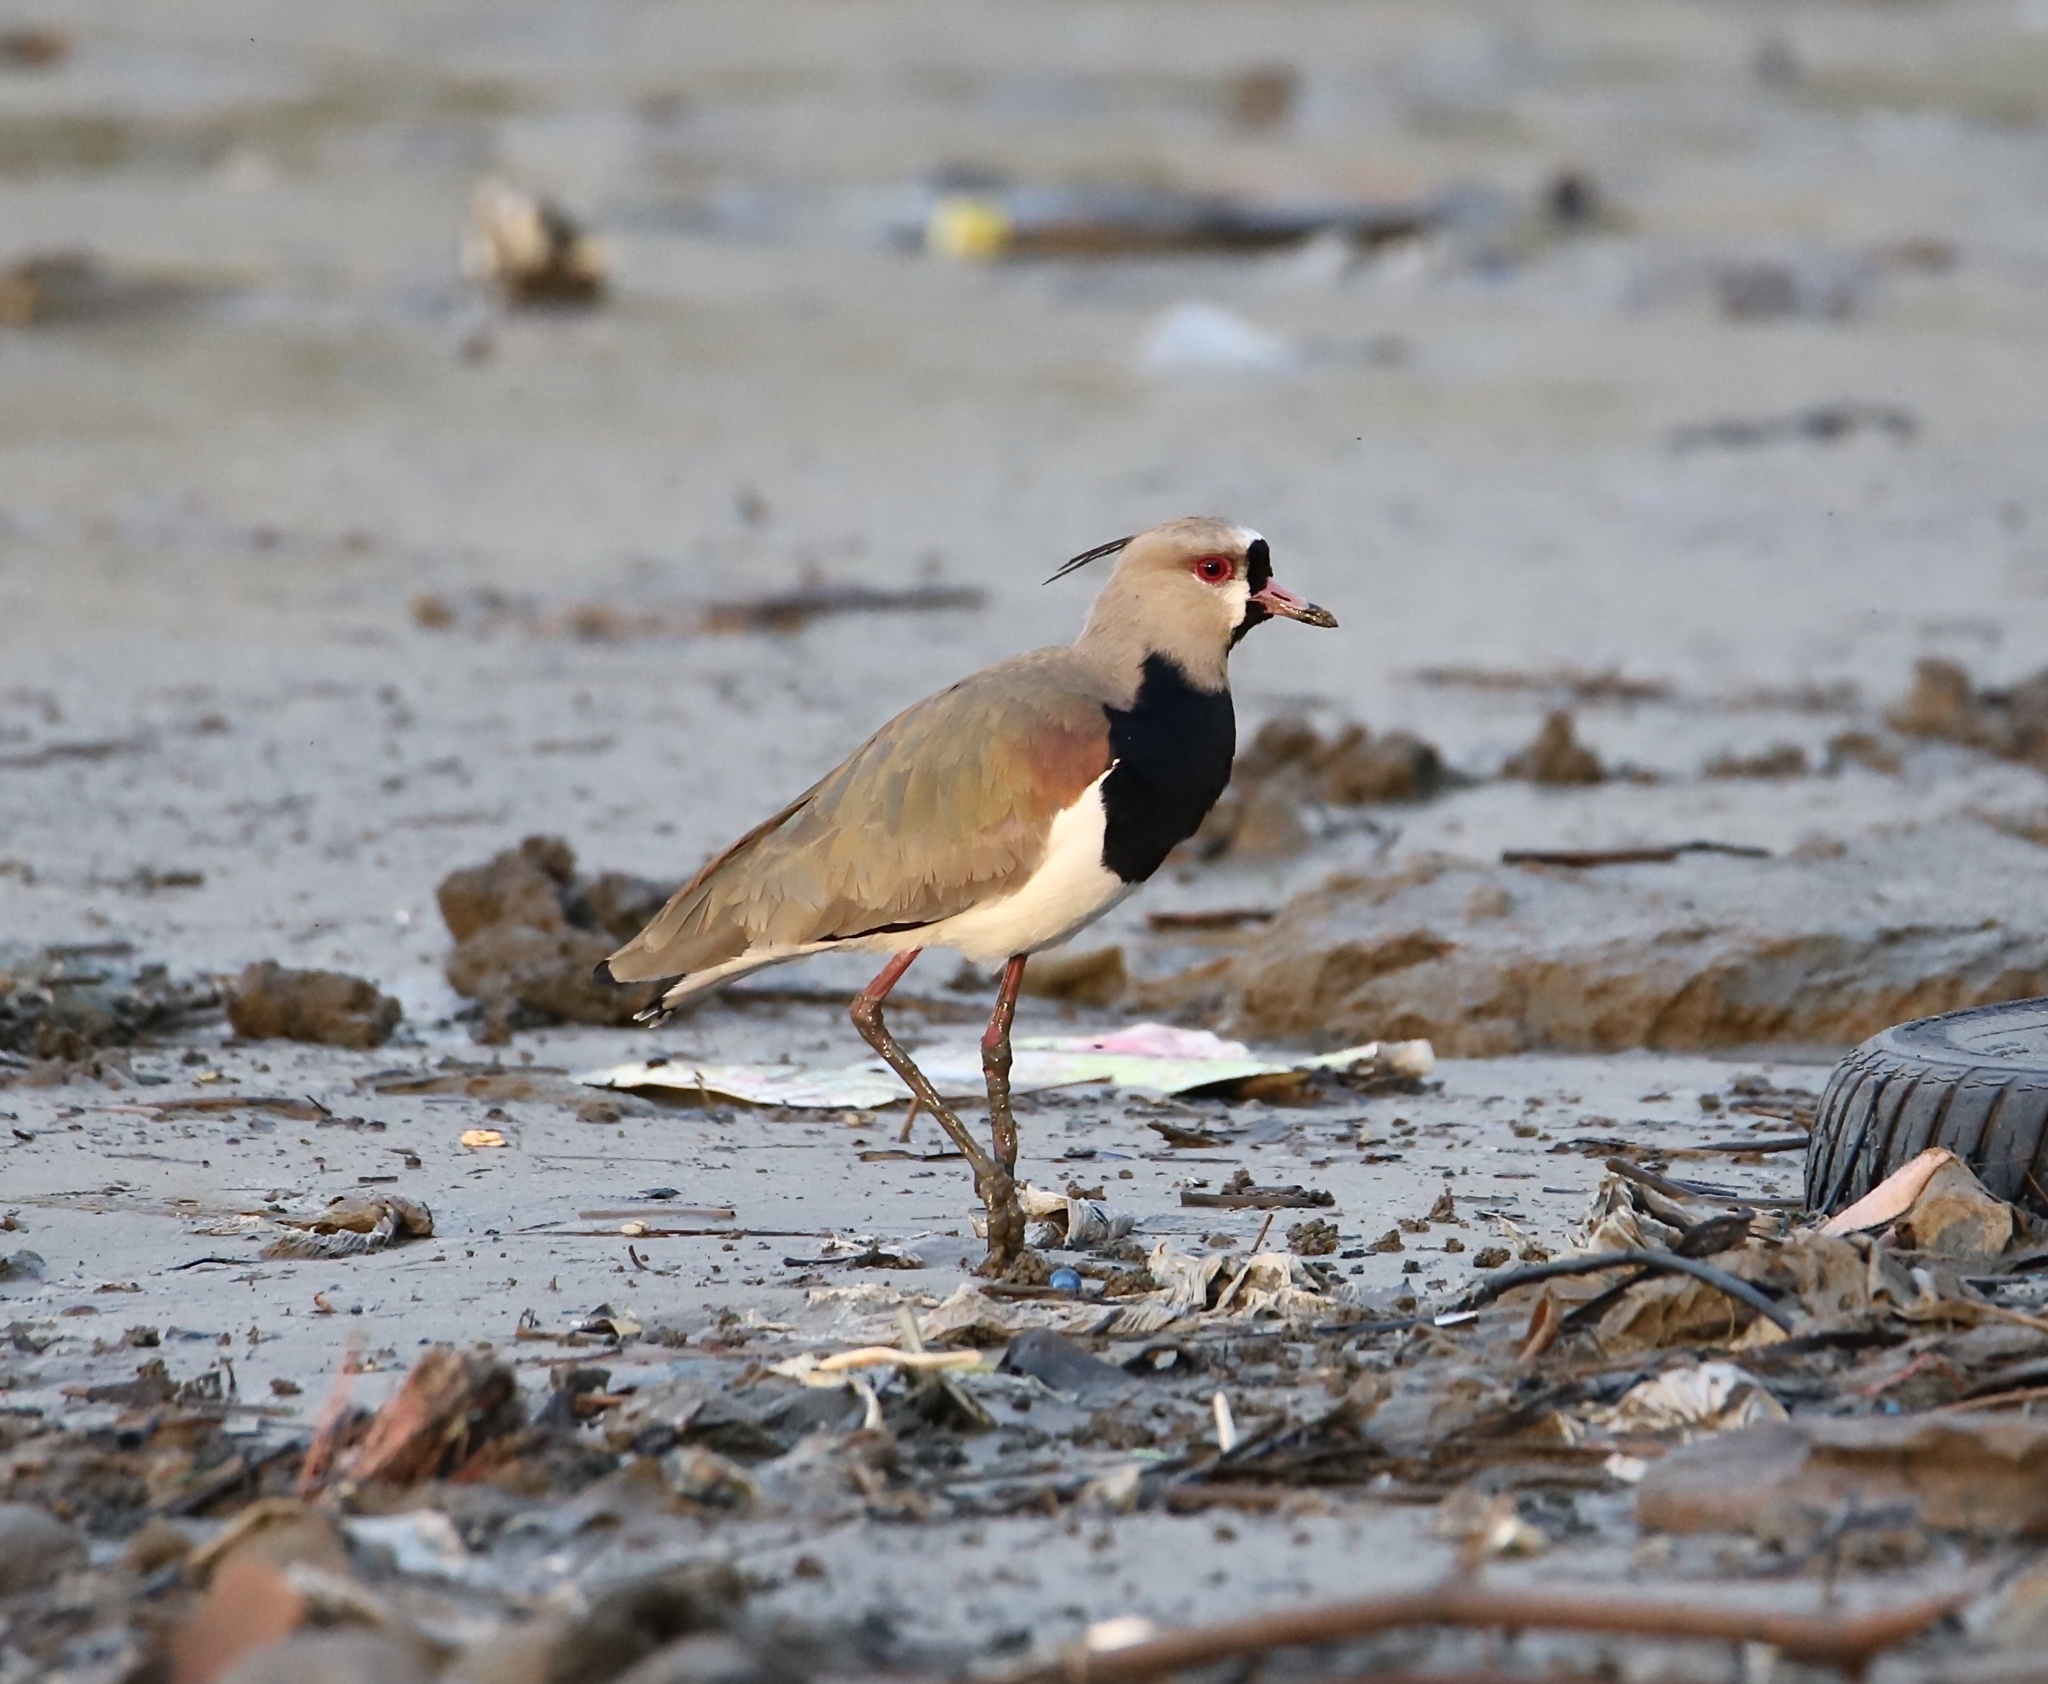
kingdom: Animalia
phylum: Chordata
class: Aves
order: Charadriiformes
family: Charadriidae
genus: Vanellus
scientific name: Vanellus chilensis
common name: Southern lapwing
